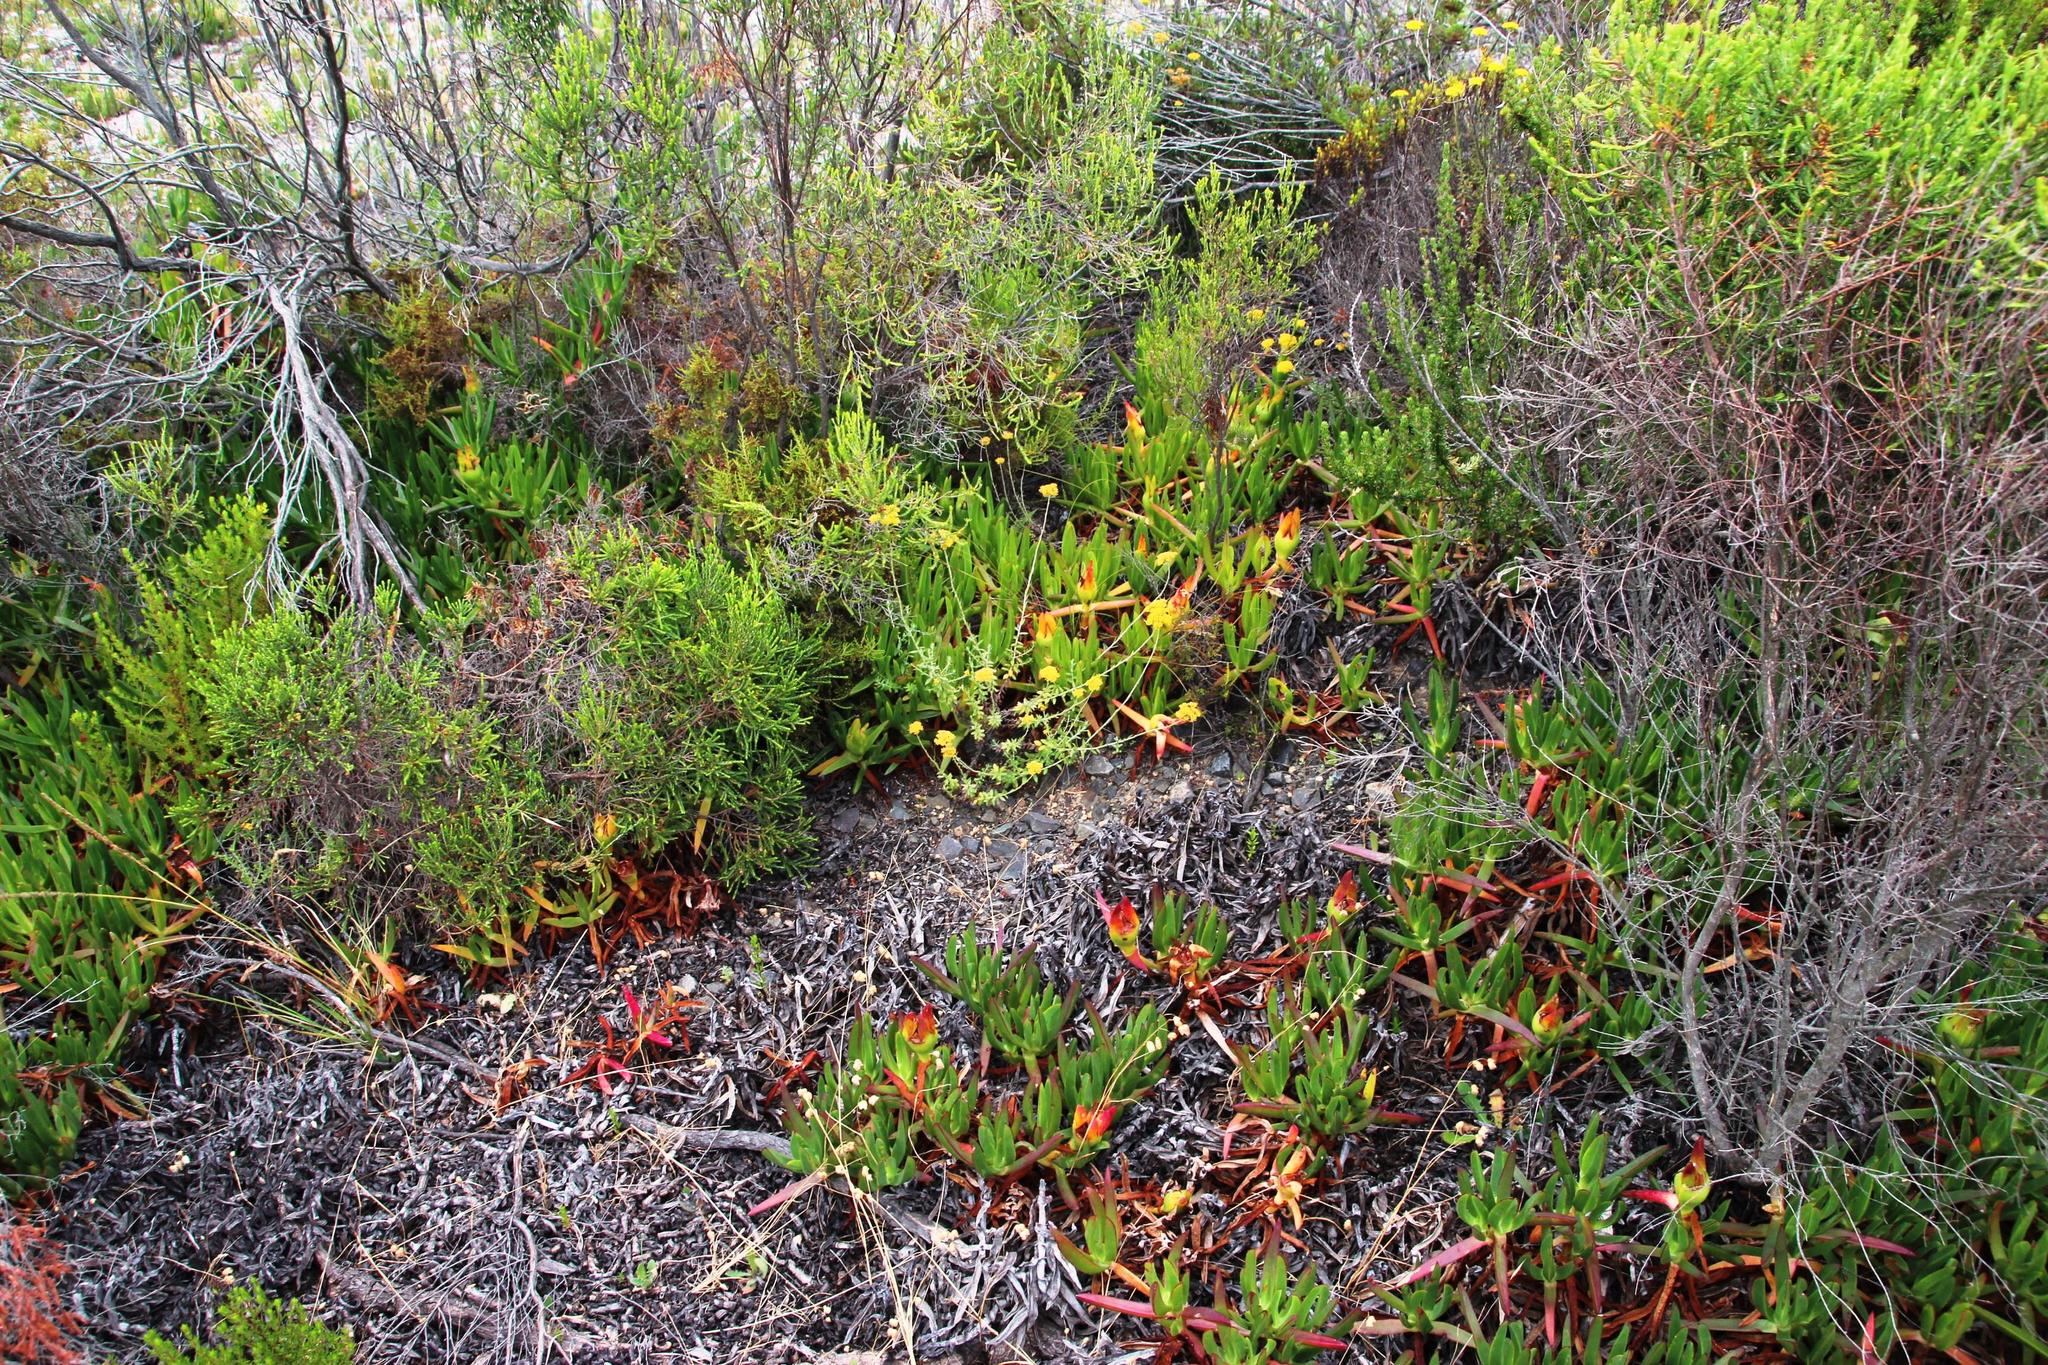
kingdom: Plantae
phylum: Tracheophyta
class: Magnoliopsida
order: Asterales
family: Asteraceae
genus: Helichrysum
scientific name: Helichrysum cymosum
